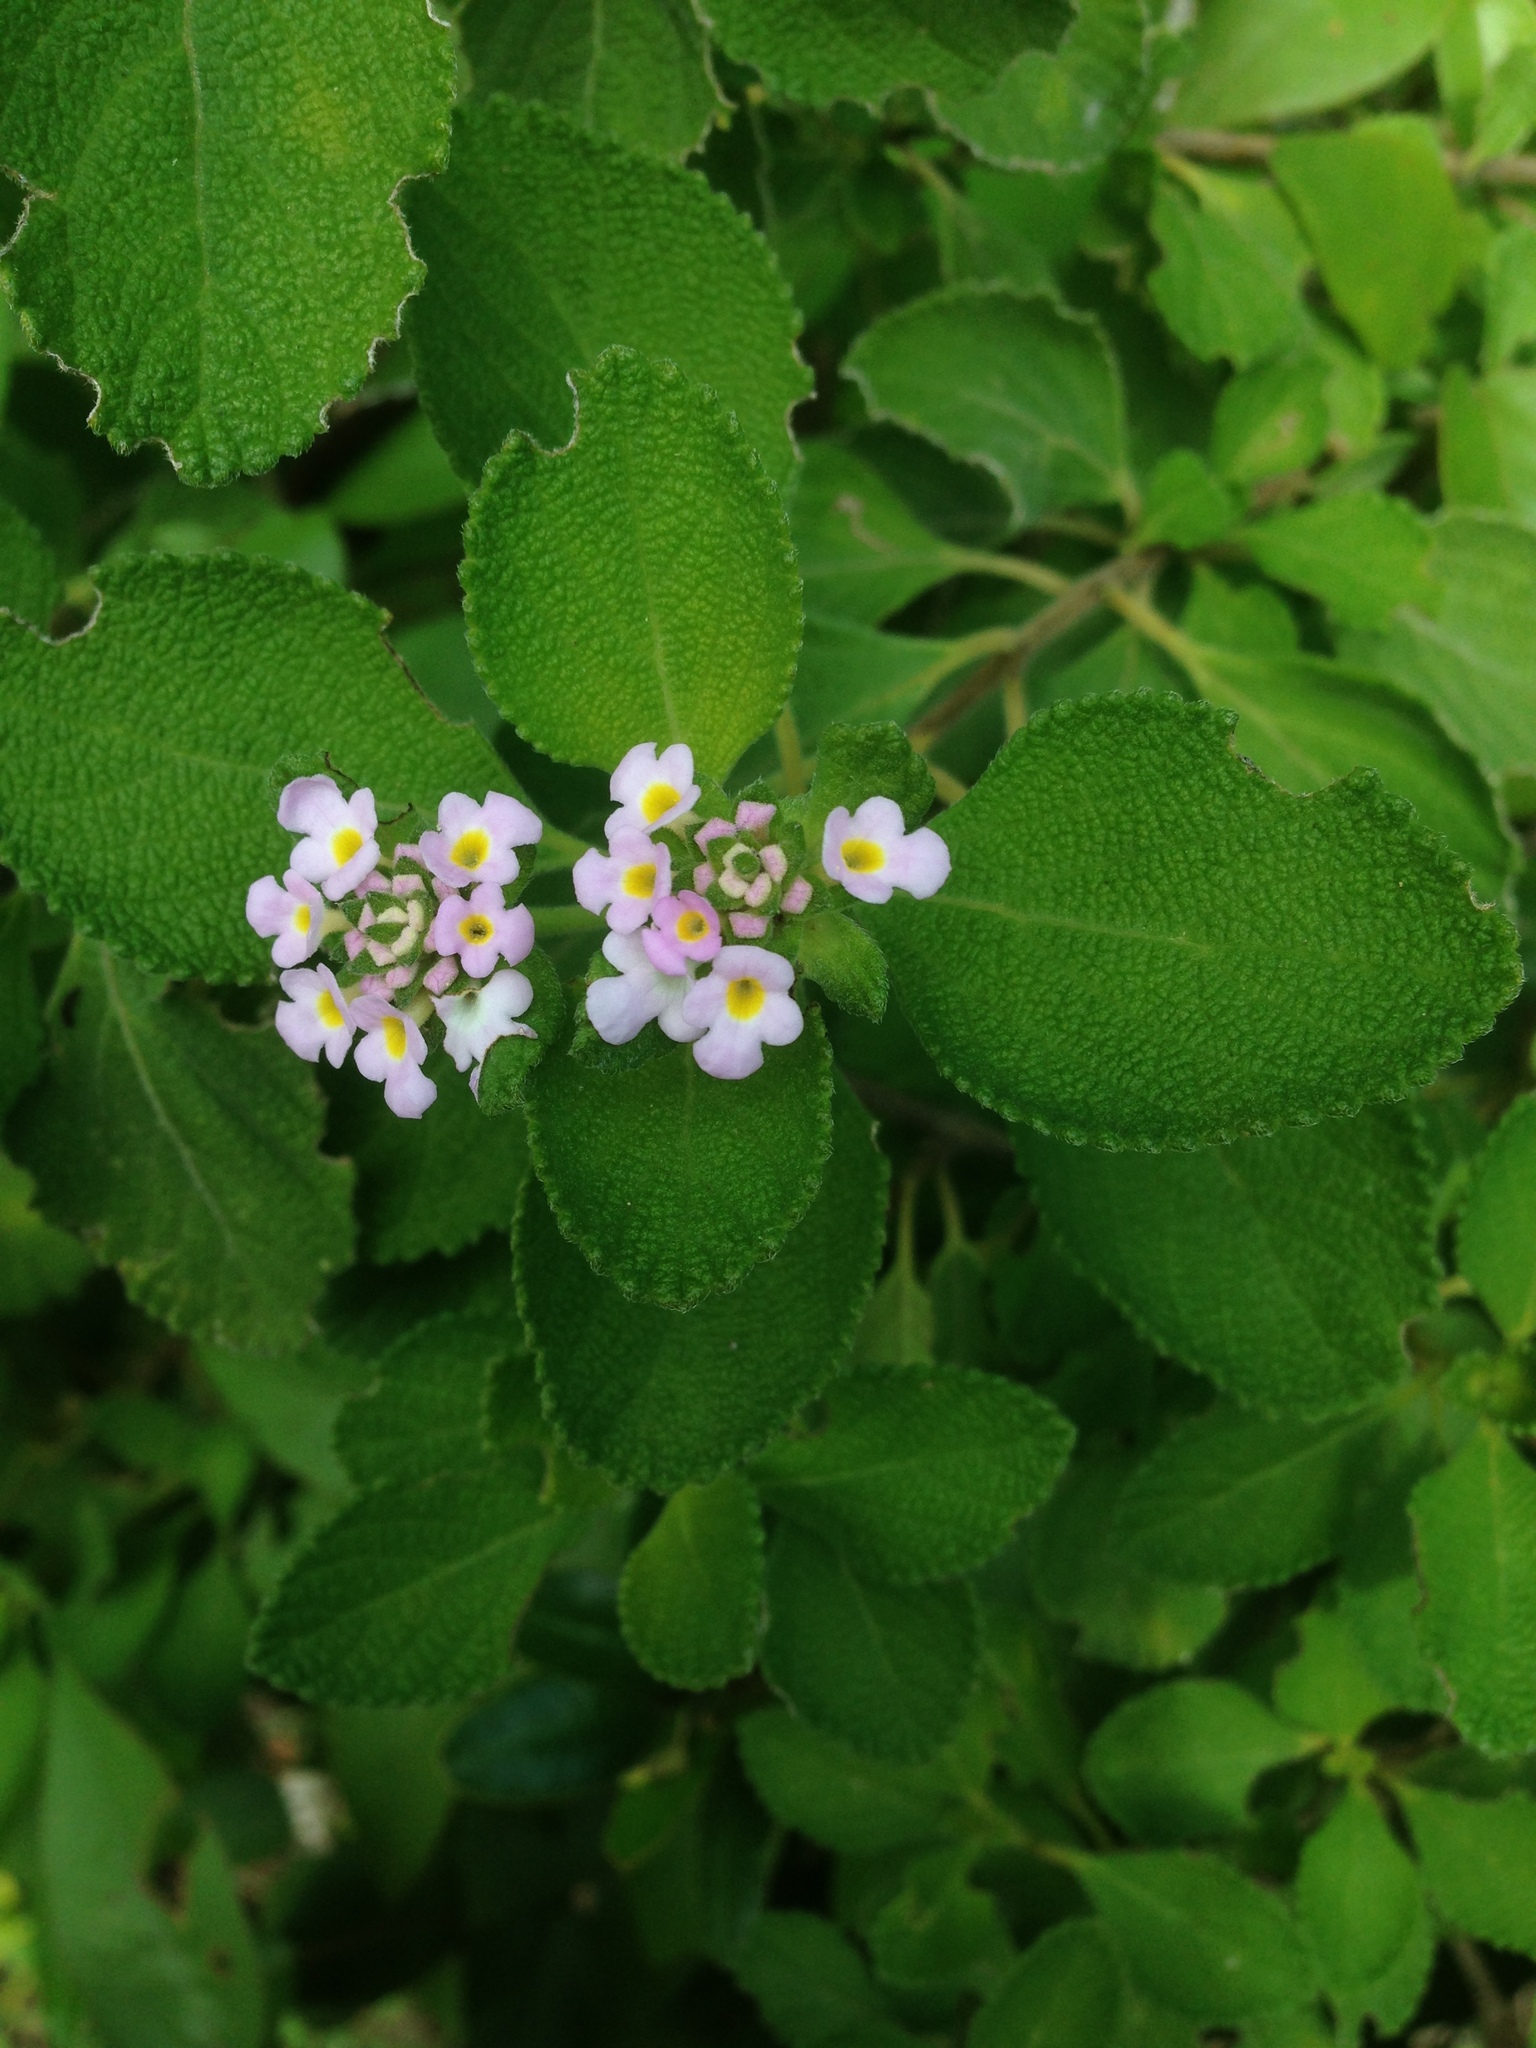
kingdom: Plantae
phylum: Tracheophyta
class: Magnoliopsida
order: Lamiales
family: Verbenaceae
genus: Lantana
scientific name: Lantana involucrata
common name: Black sage
